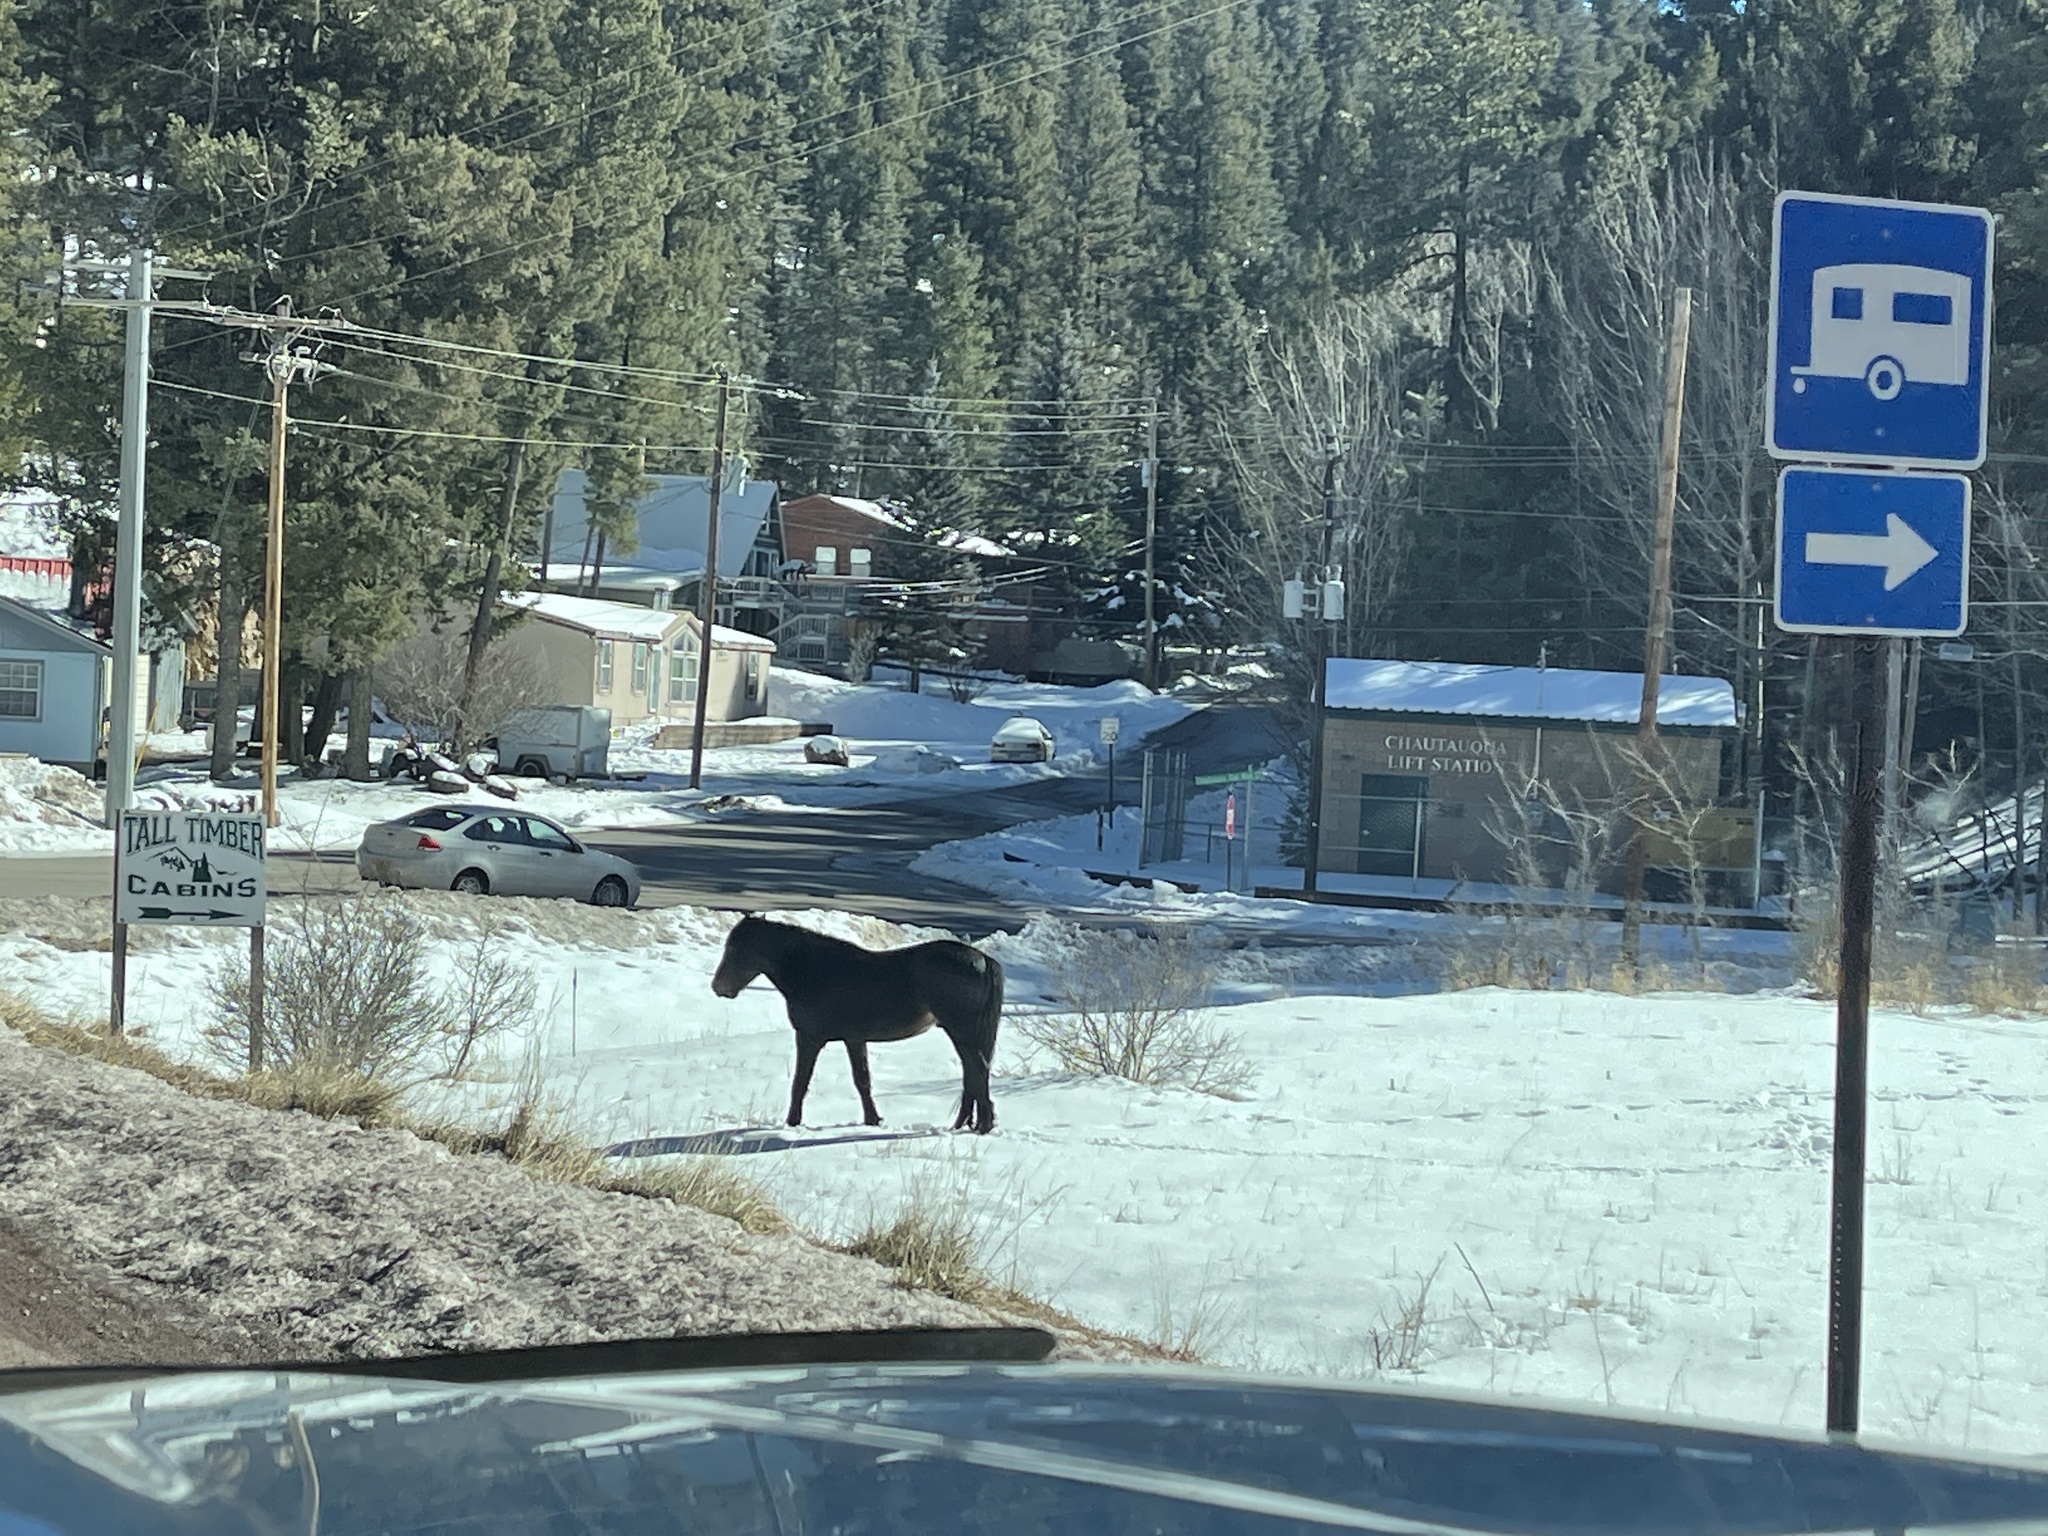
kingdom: Animalia
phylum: Chordata
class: Mammalia
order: Perissodactyla
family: Equidae
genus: Equus
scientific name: Equus caballus
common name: Horse
